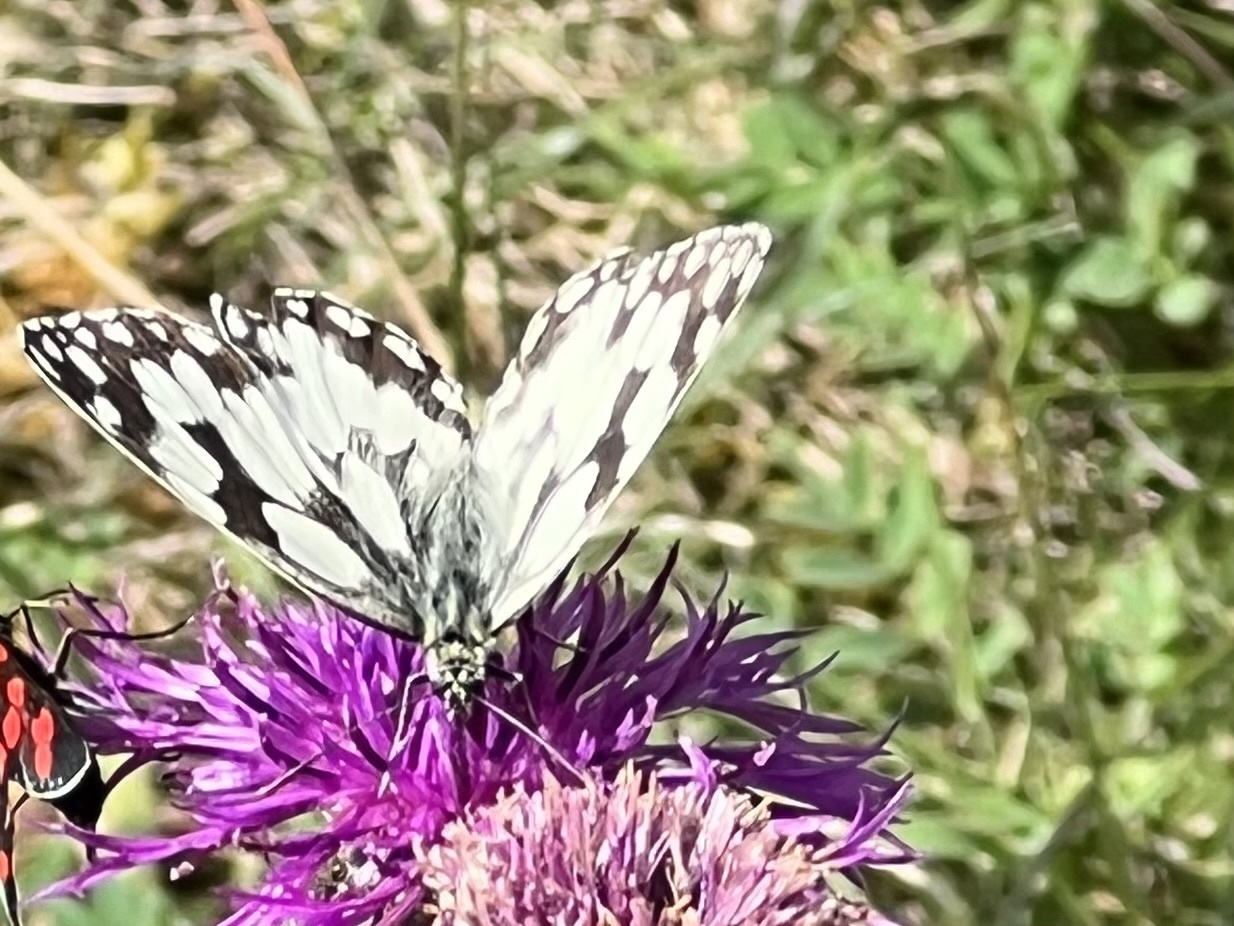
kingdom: Animalia
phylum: Arthropoda
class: Insecta
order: Lepidoptera
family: Nymphalidae
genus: Melanargia
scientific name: Melanargia galathea
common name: Marbled white
